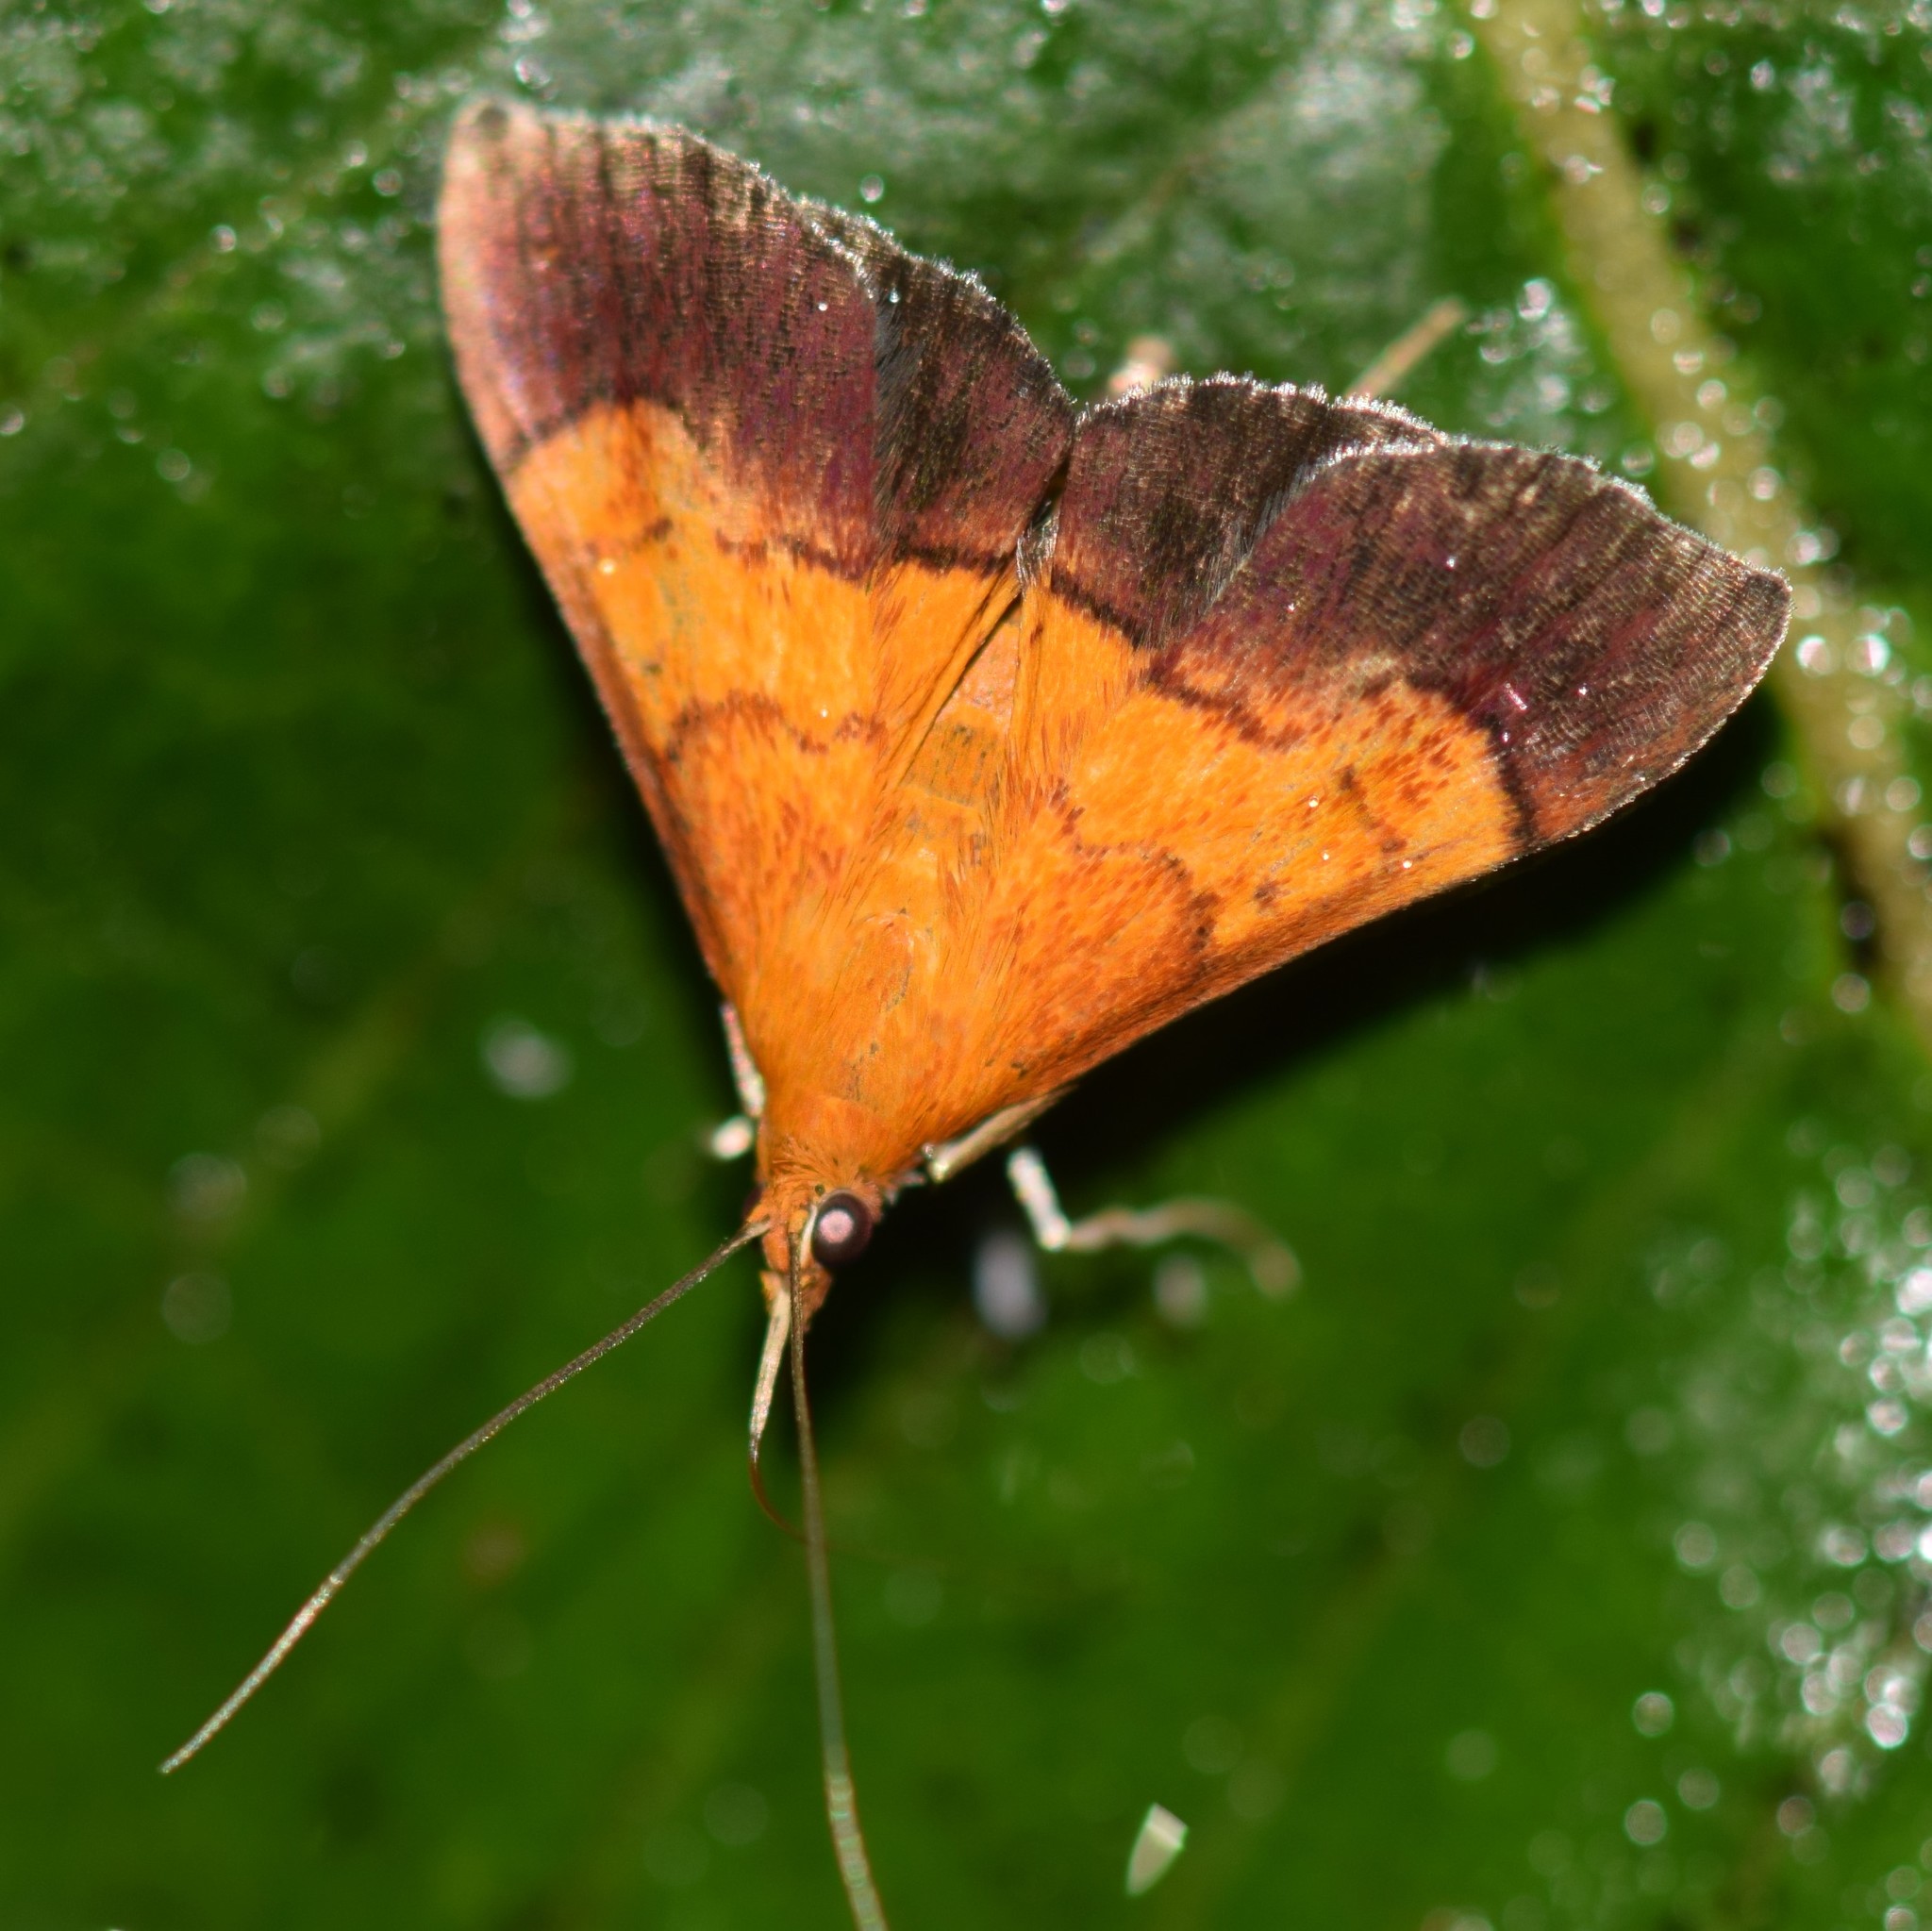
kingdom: Animalia
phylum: Arthropoda
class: Insecta
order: Lepidoptera
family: Crambidae
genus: Pyrausta
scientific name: Pyrausta bicoloralis
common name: Bicolored pyrausta moth
